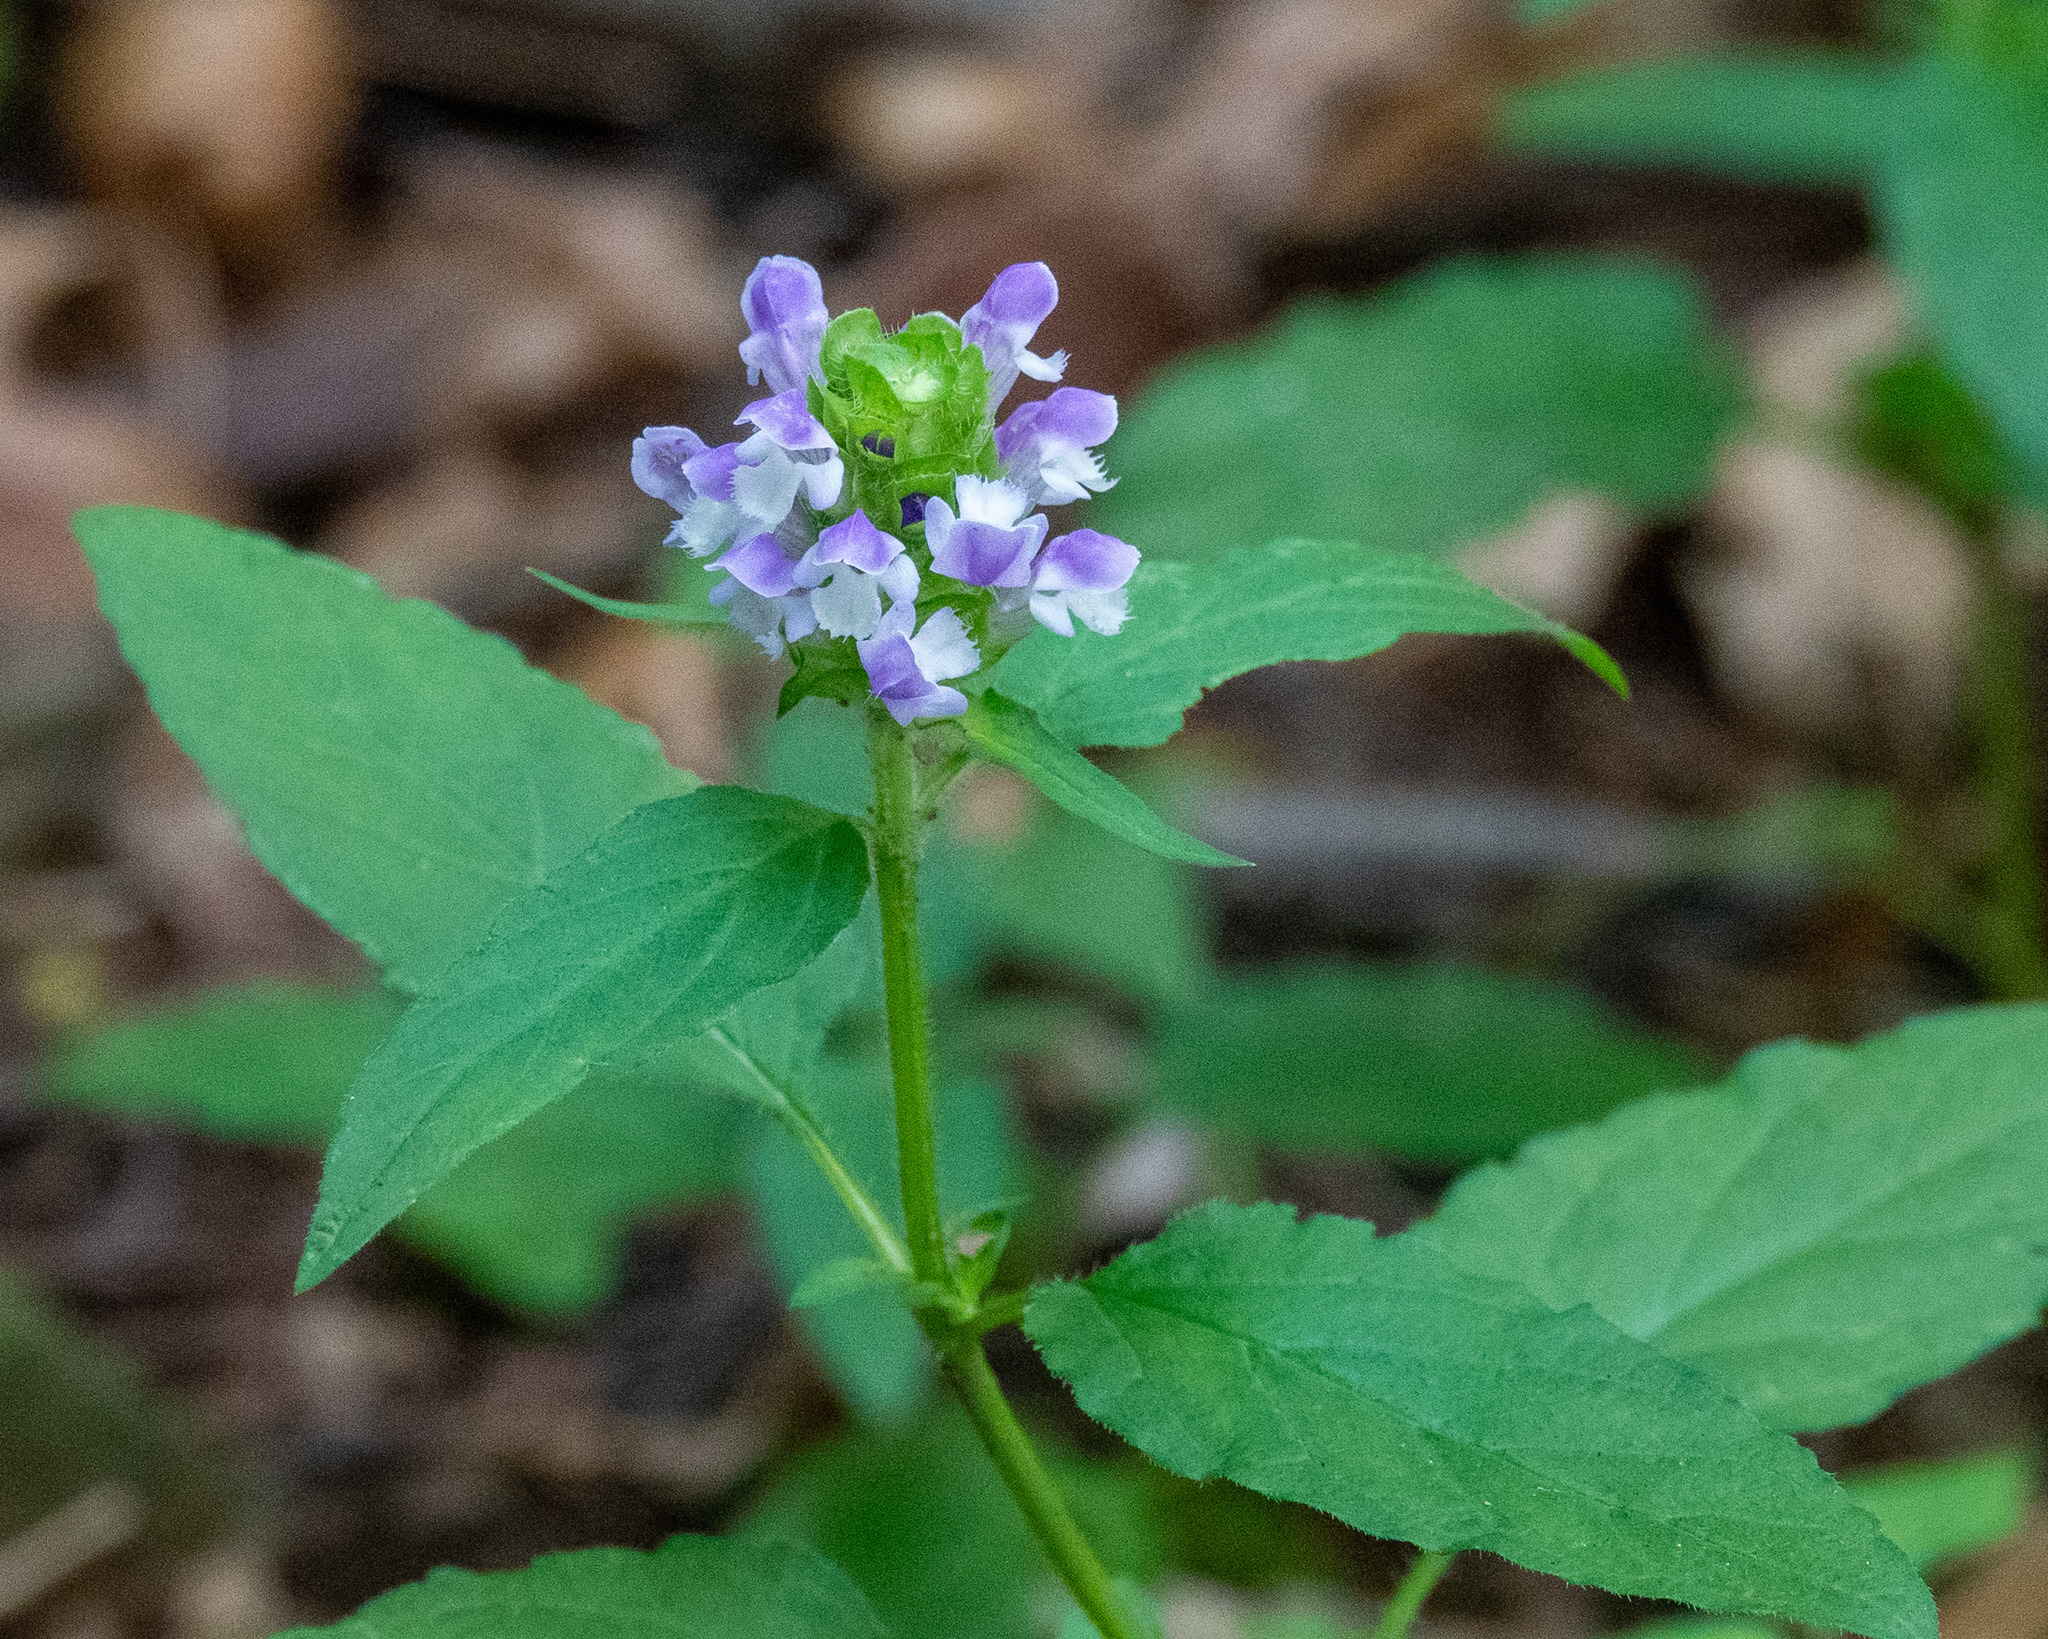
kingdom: Plantae
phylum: Tracheophyta
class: Magnoliopsida
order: Lamiales
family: Lamiaceae
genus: Prunella
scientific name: Prunella vulgaris
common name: Heal-all
